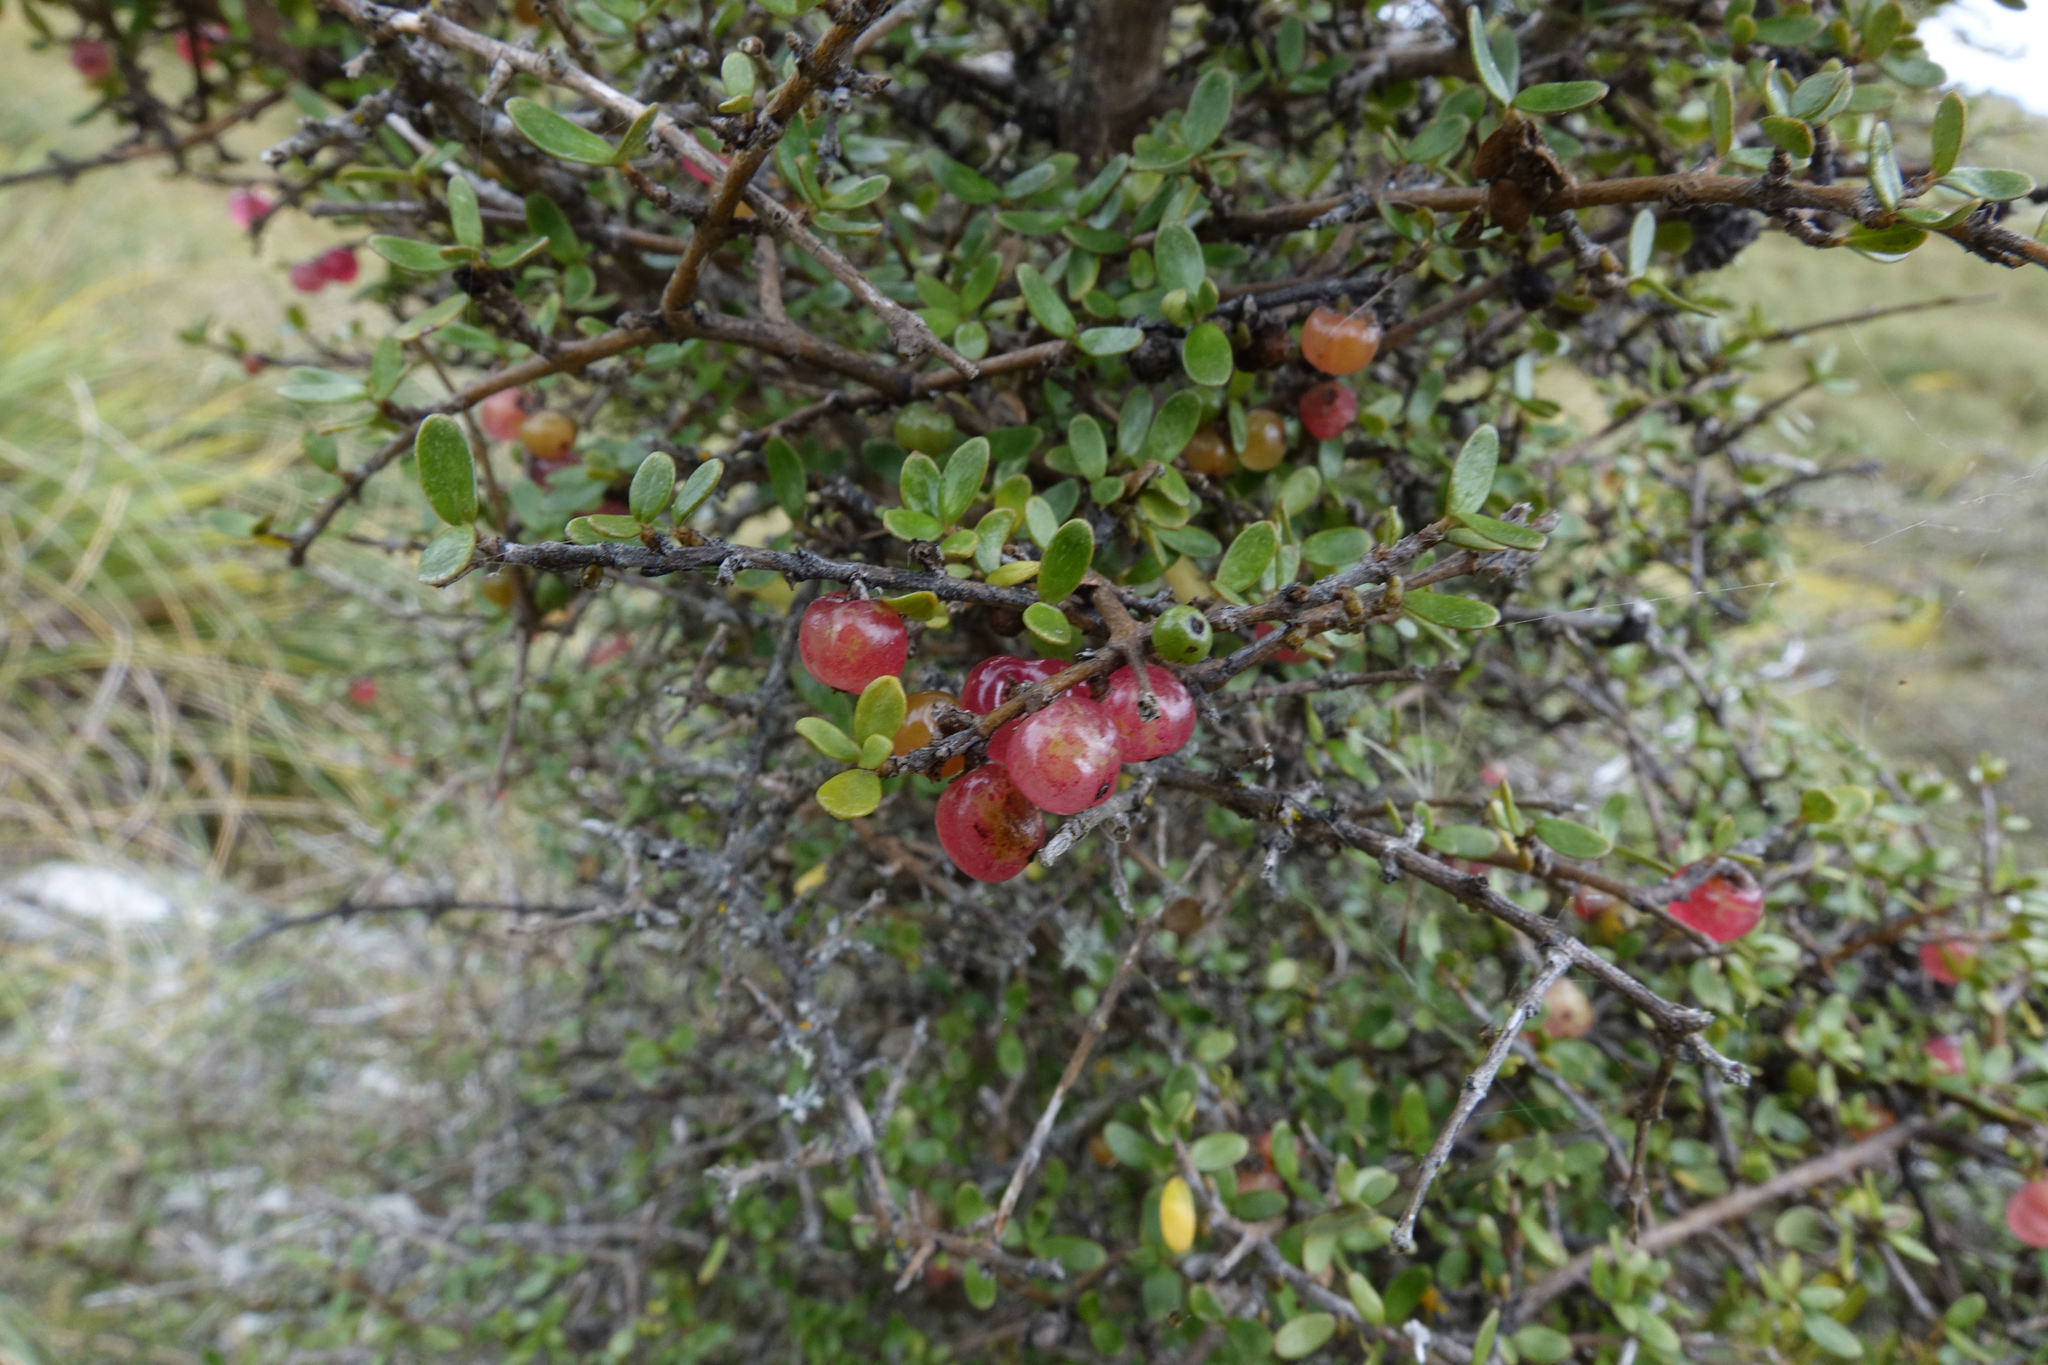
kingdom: Plantae
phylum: Tracheophyta
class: Magnoliopsida
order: Gentianales
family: Rubiaceae
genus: Coprosma
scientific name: Coprosma dumosa
